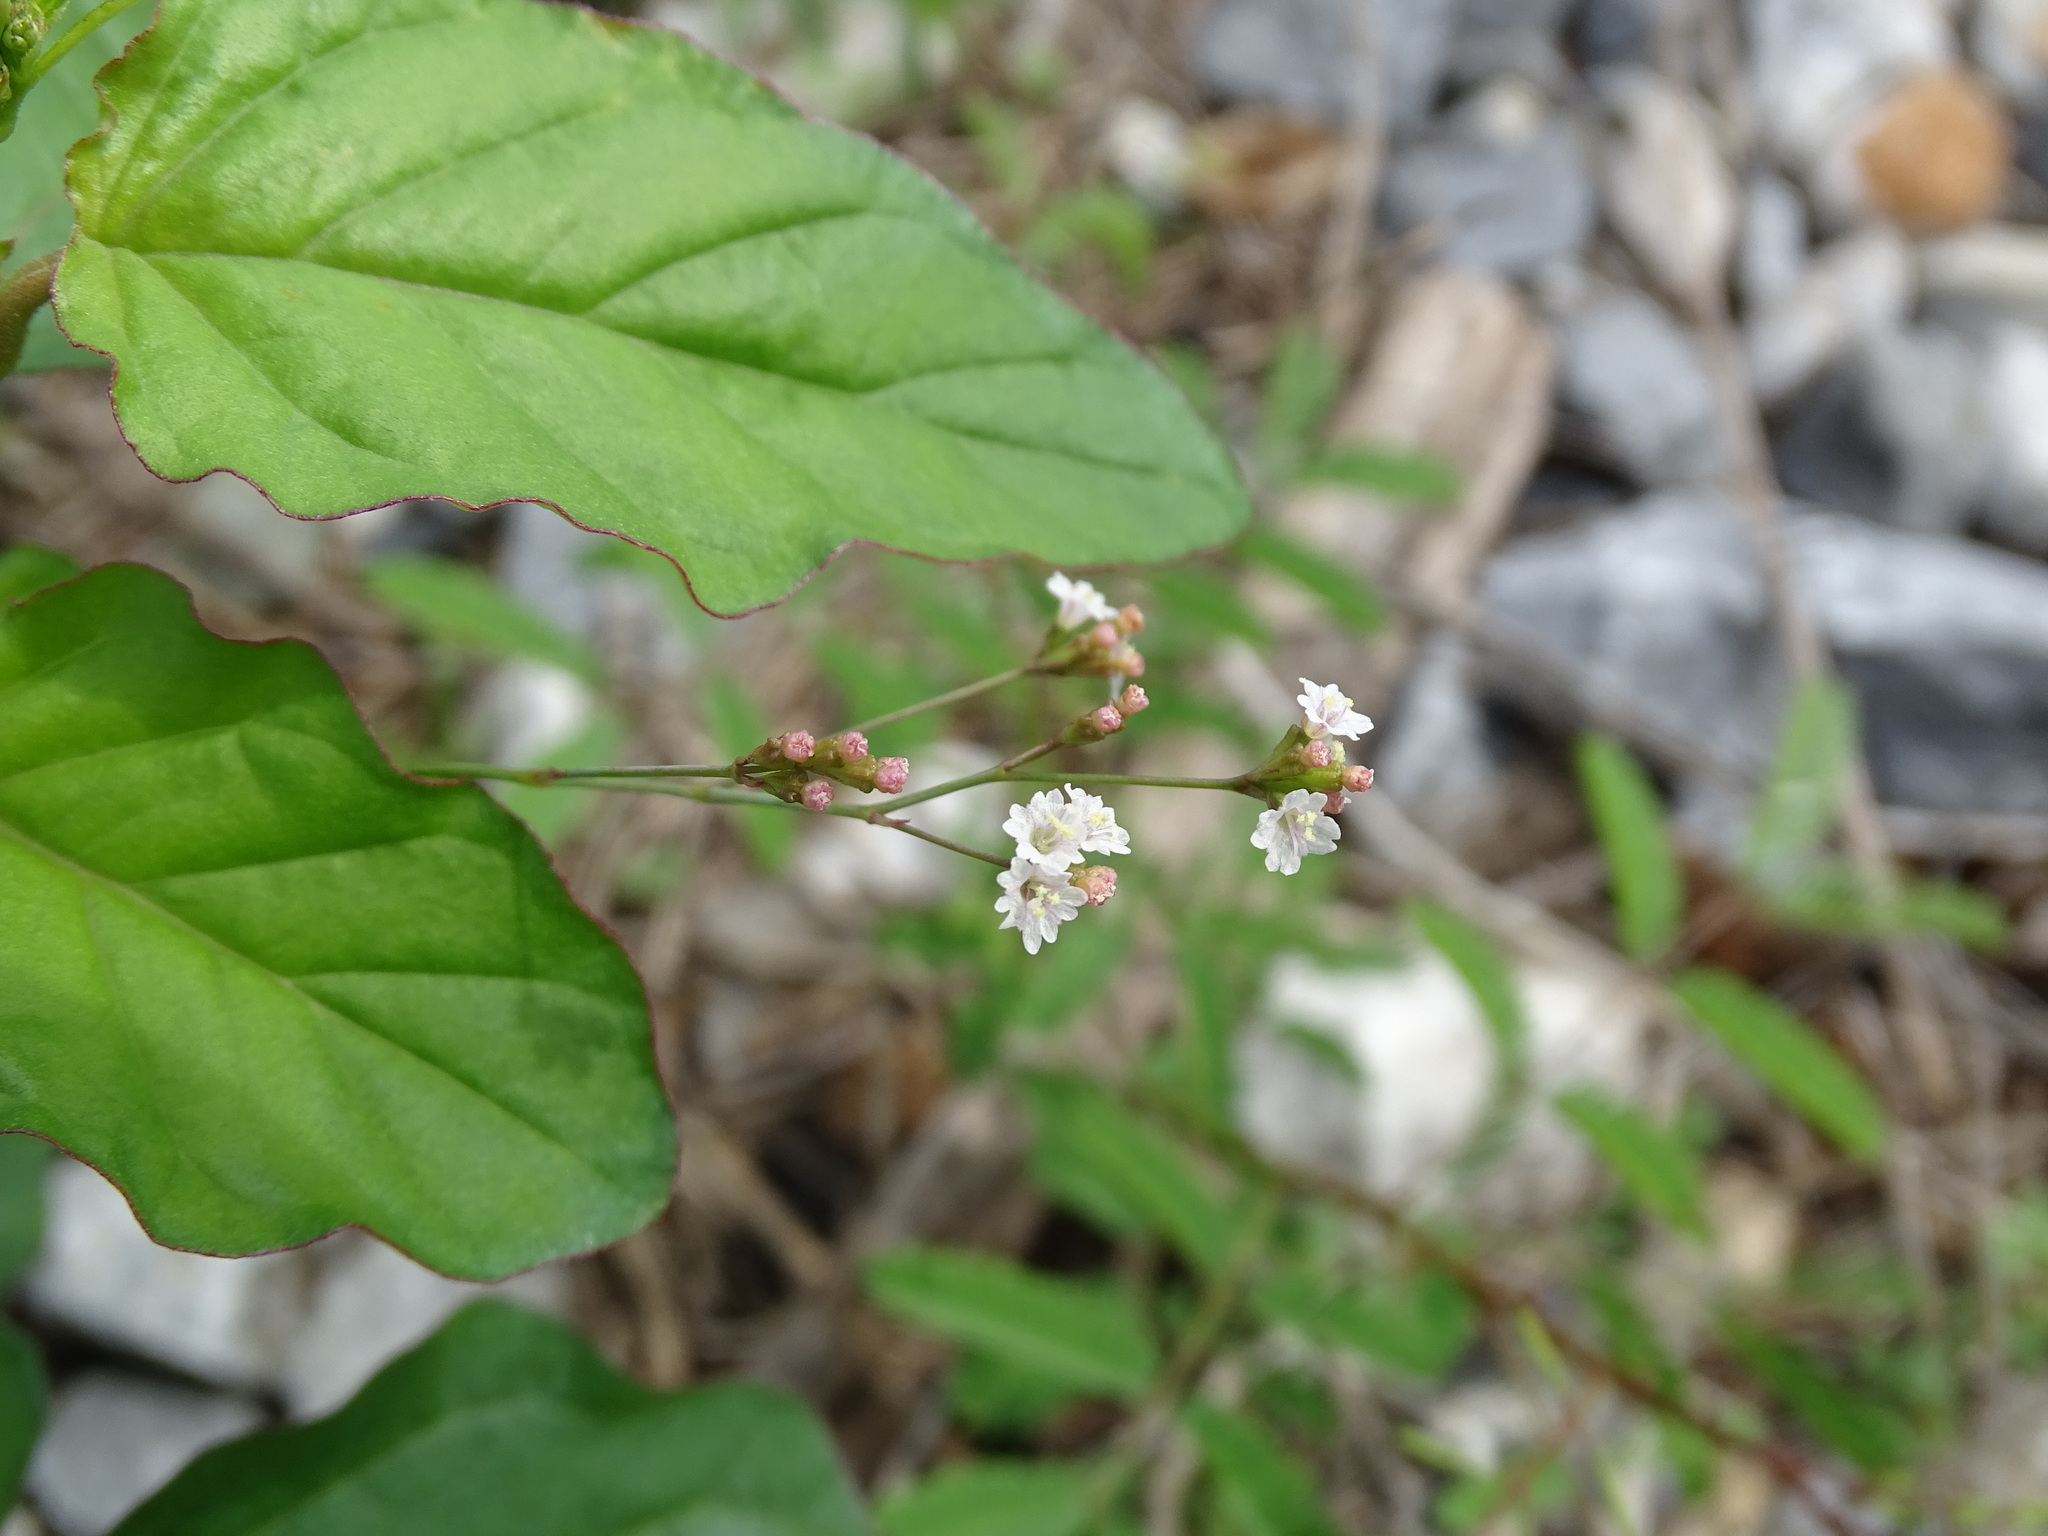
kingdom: Plantae
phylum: Tracheophyta
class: Magnoliopsida
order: Caryophyllales
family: Nyctaginaceae
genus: Boerhavia
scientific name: Boerhavia erecta
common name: Erect spiderling
